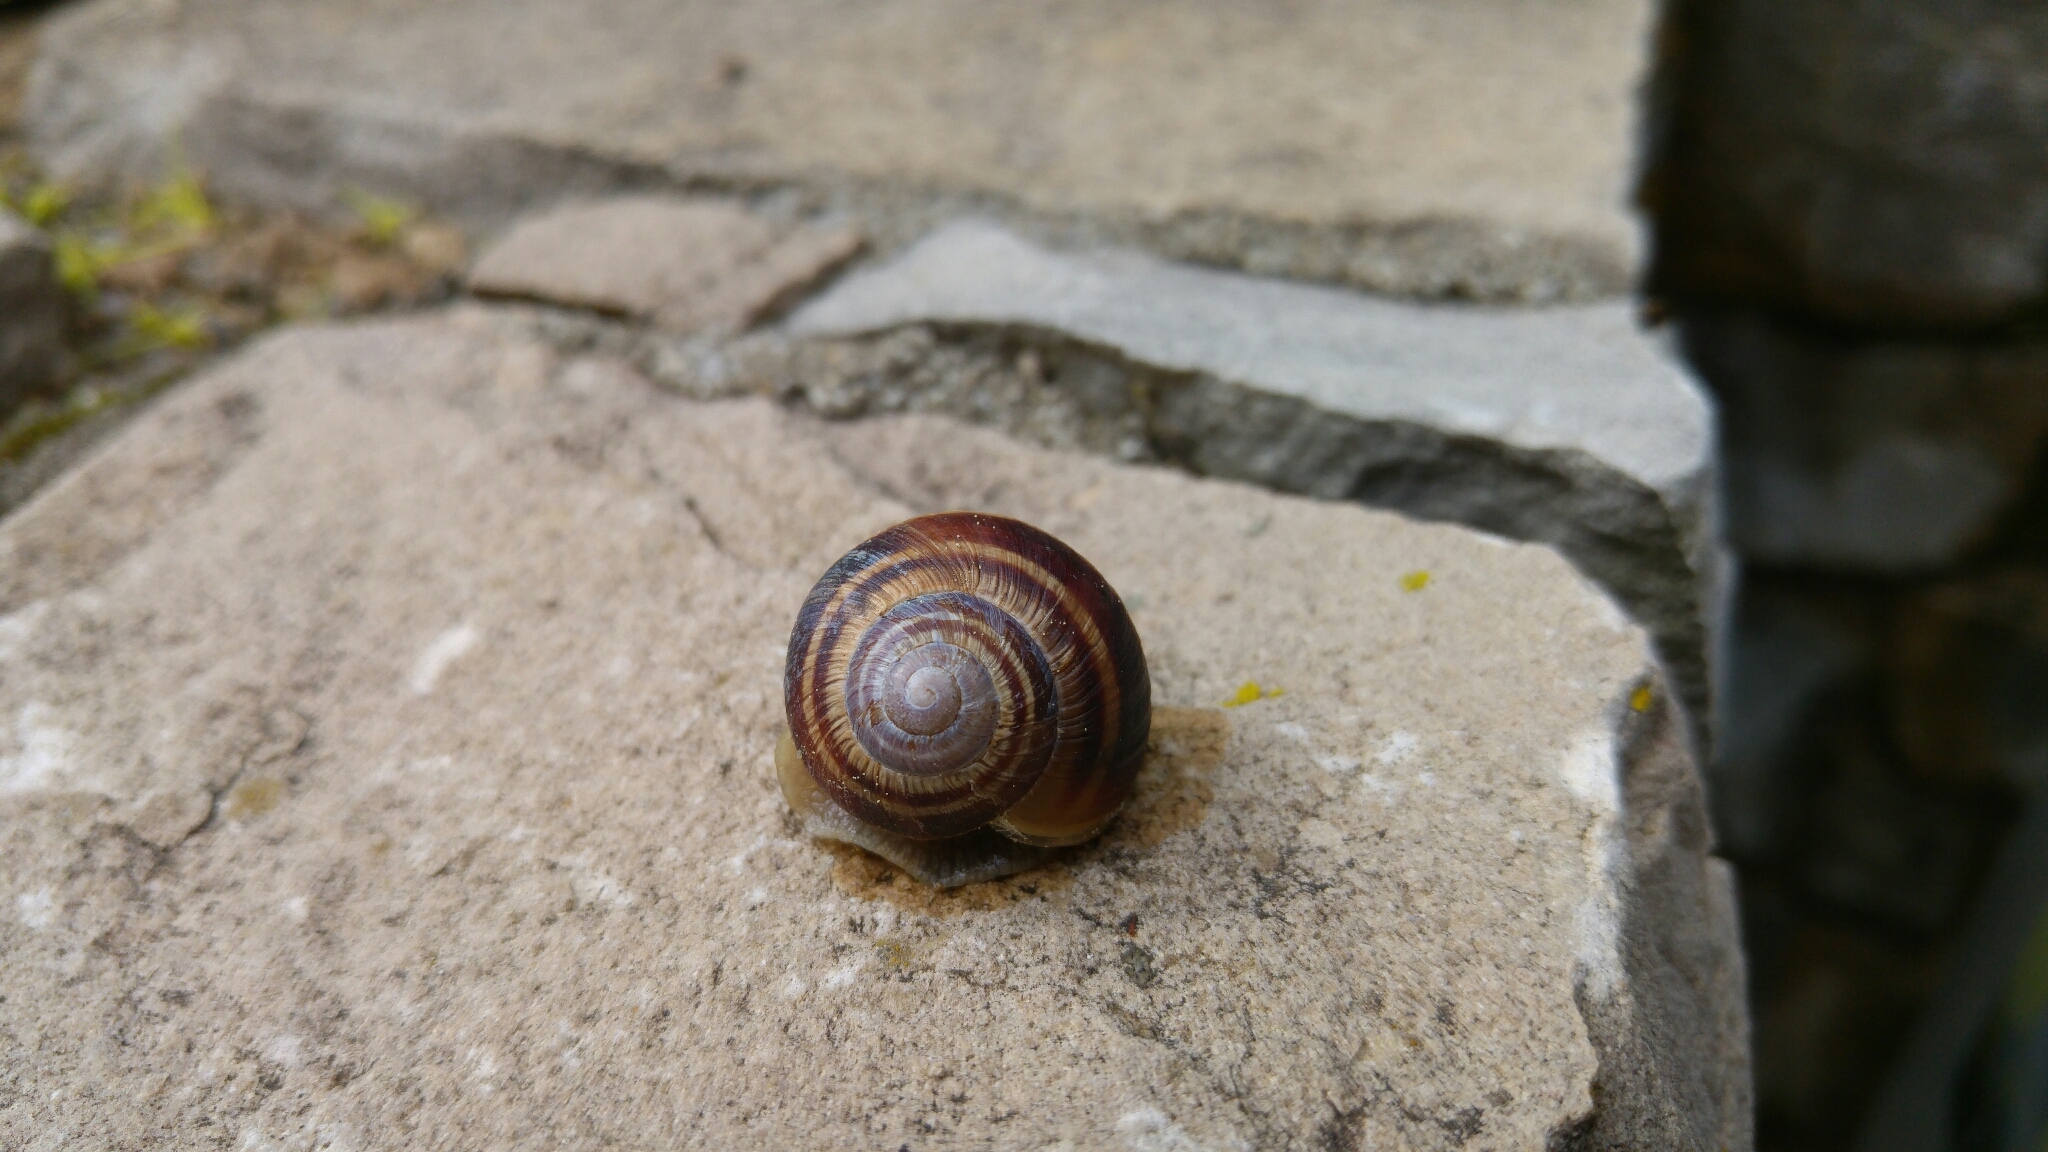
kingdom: Animalia
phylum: Mollusca
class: Gastropoda
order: Stylommatophora
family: Helicidae
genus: Helix
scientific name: Helix straminea
